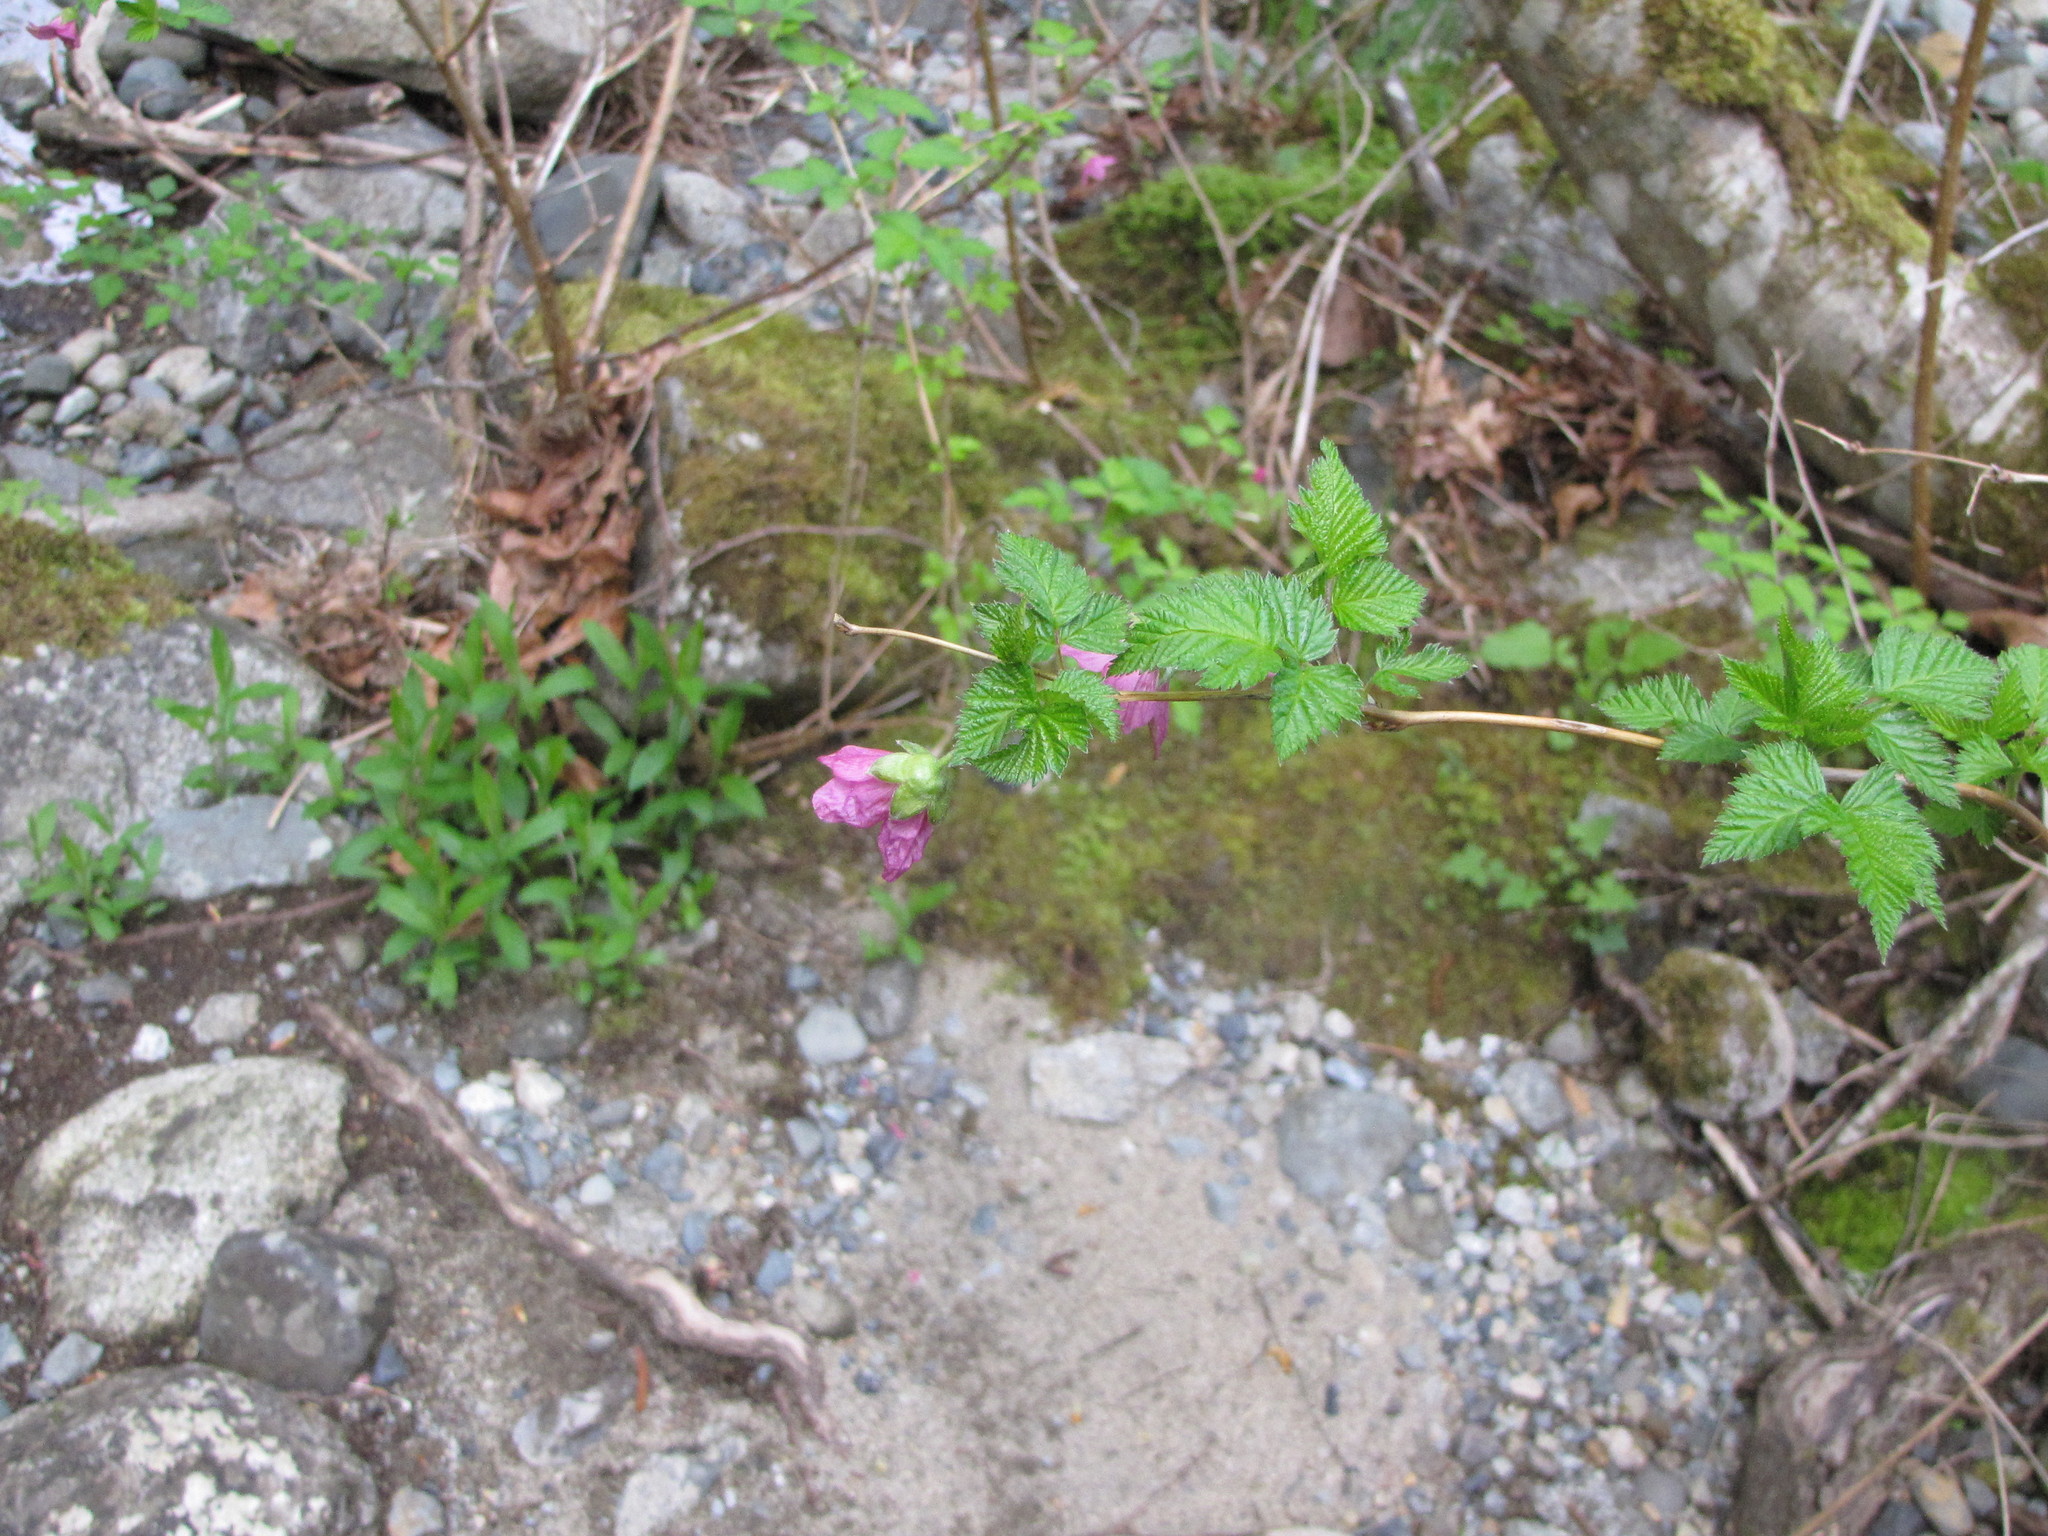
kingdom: Plantae
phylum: Tracheophyta
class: Magnoliopsida
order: Rosales
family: Rosaceae
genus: Rubus
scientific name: Rubus spectabilis
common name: Salmonberry
